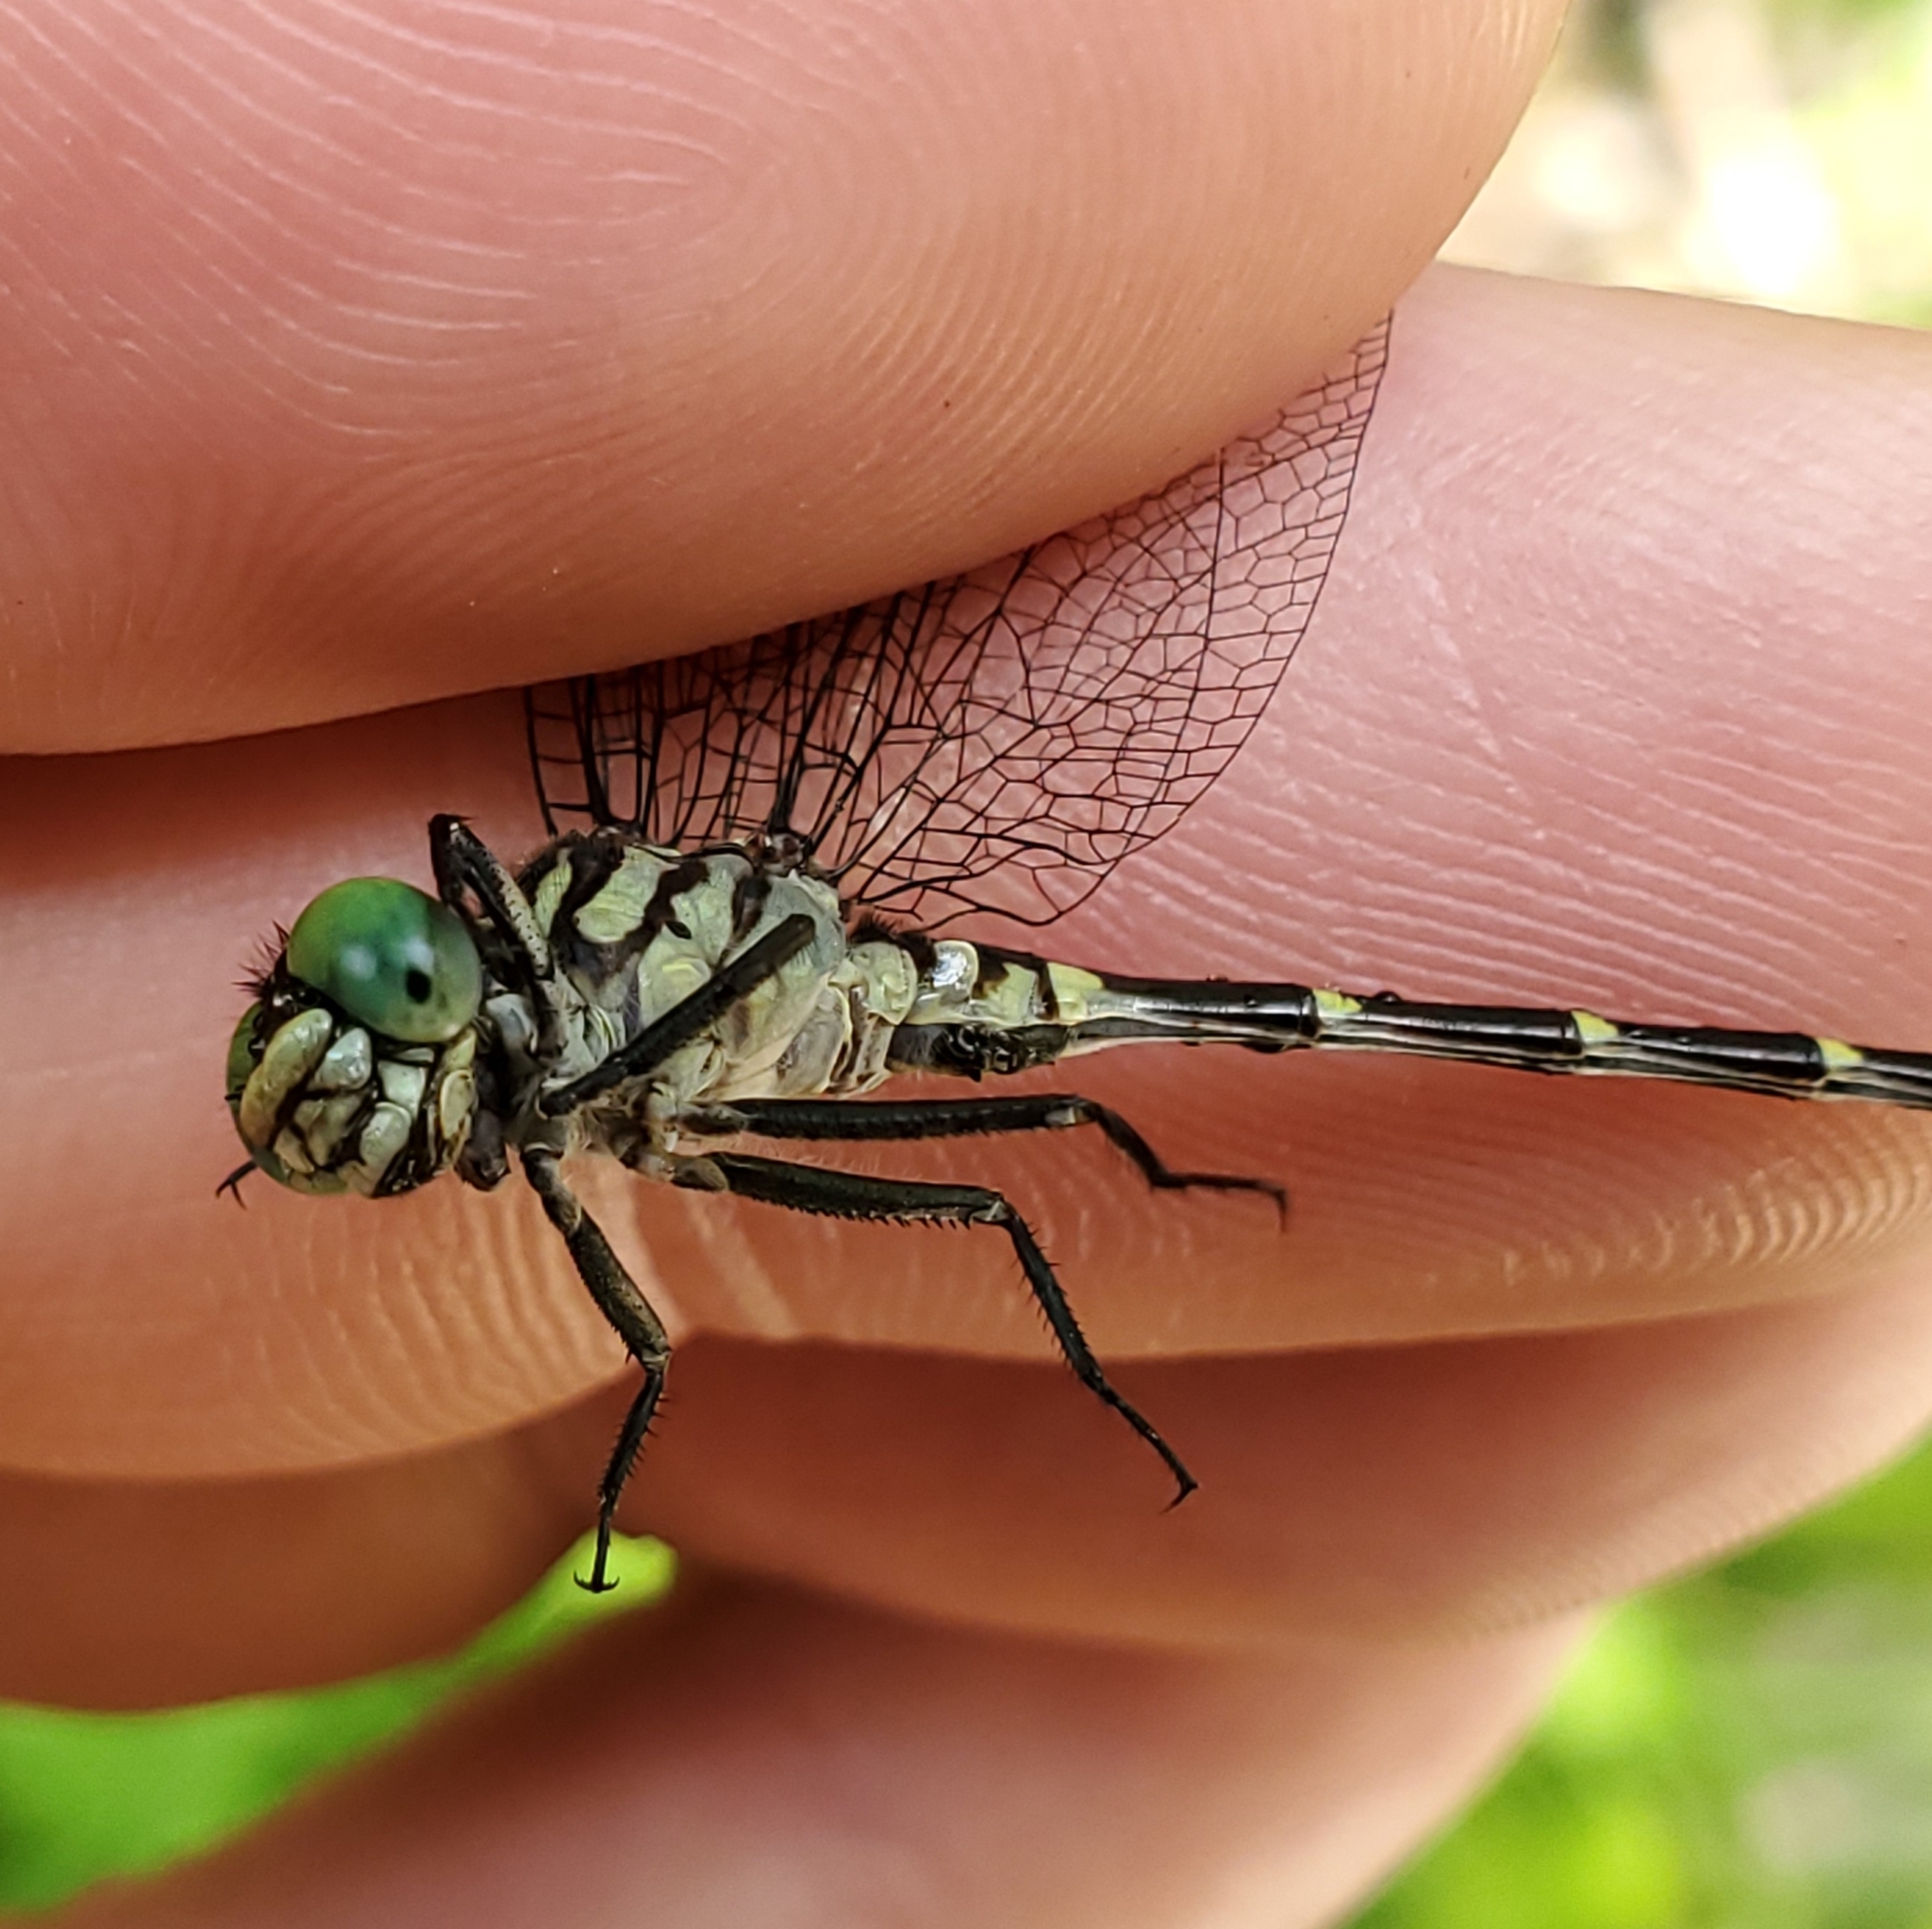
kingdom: Animalia
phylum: Arthropoda
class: Insecta
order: Odonata
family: Gomphidae
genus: Stylogomphus
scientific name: Stylogomphus albistylus
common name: Eastern least clubtail
